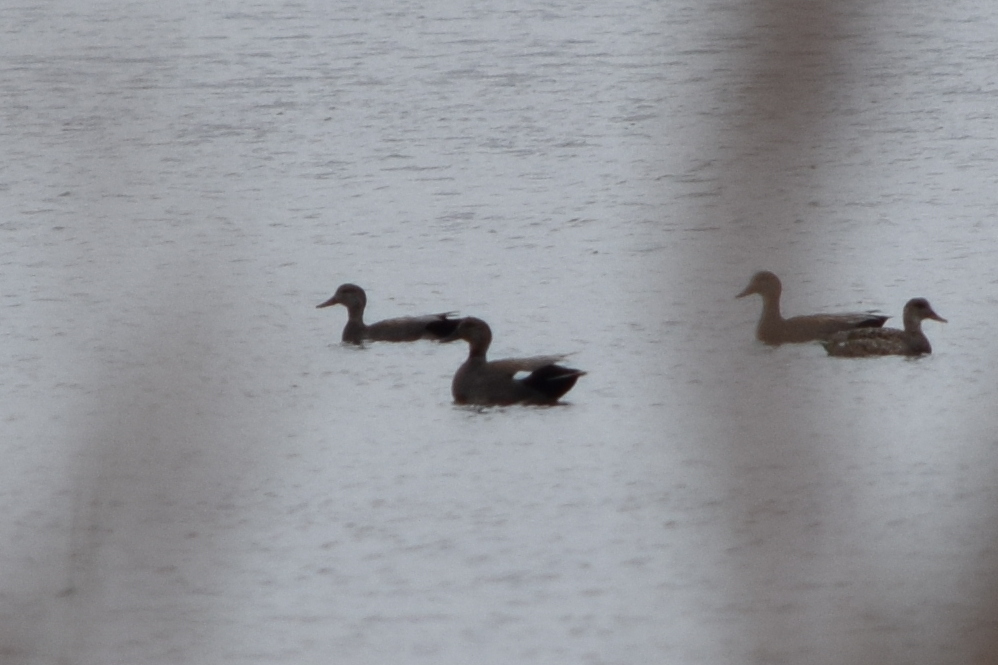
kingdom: Animalia
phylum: Chordata
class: Aves
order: Anseriformes
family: Anatidae
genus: Mareca
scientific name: Mareca strepera
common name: Gadwall
